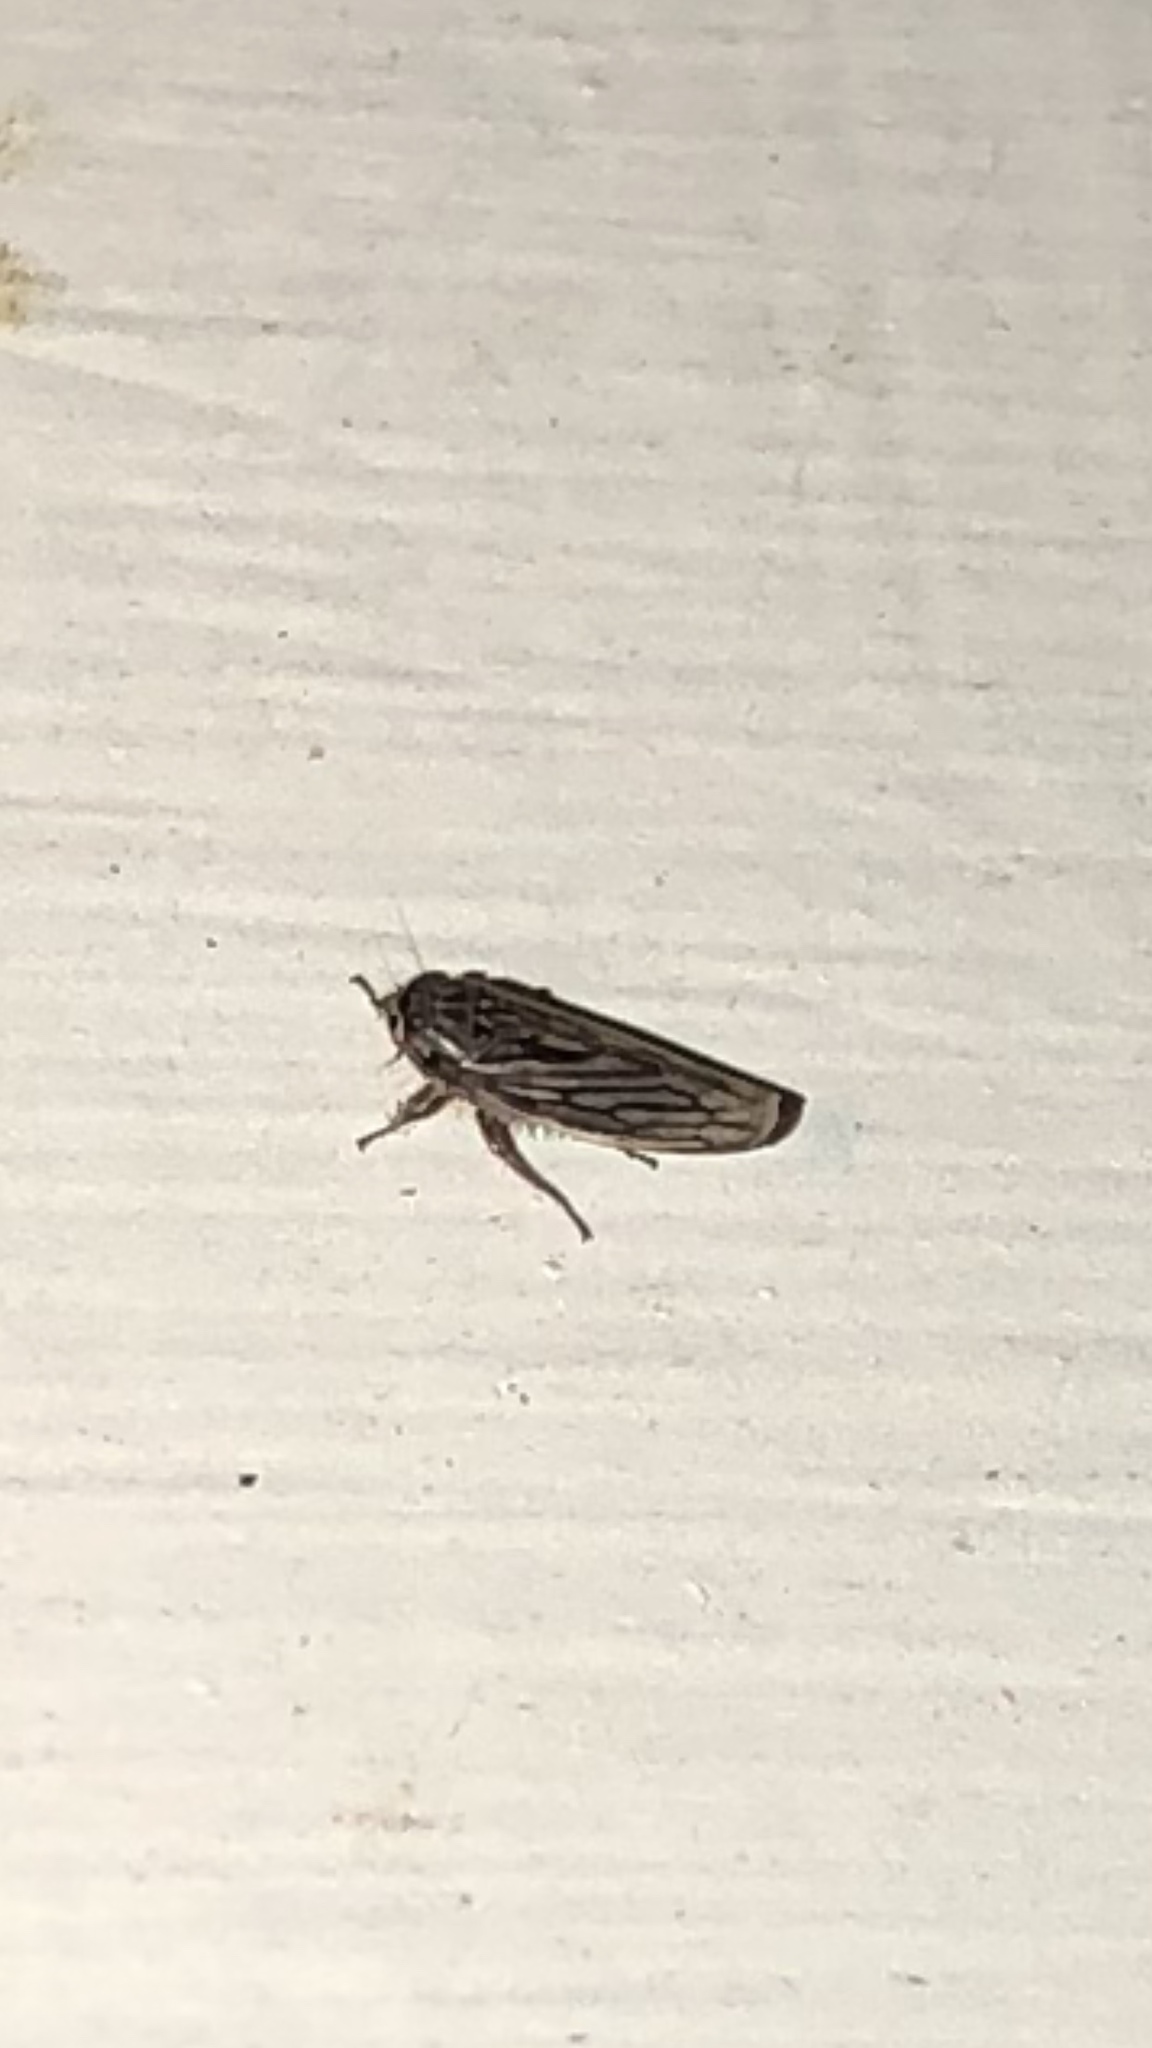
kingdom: Animalia
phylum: Arthropoda
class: Insecta
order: Hemiptera
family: Cicadellidae
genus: Exitianus
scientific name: Exitianus exitiosus
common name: Gray lawn leafhopper
